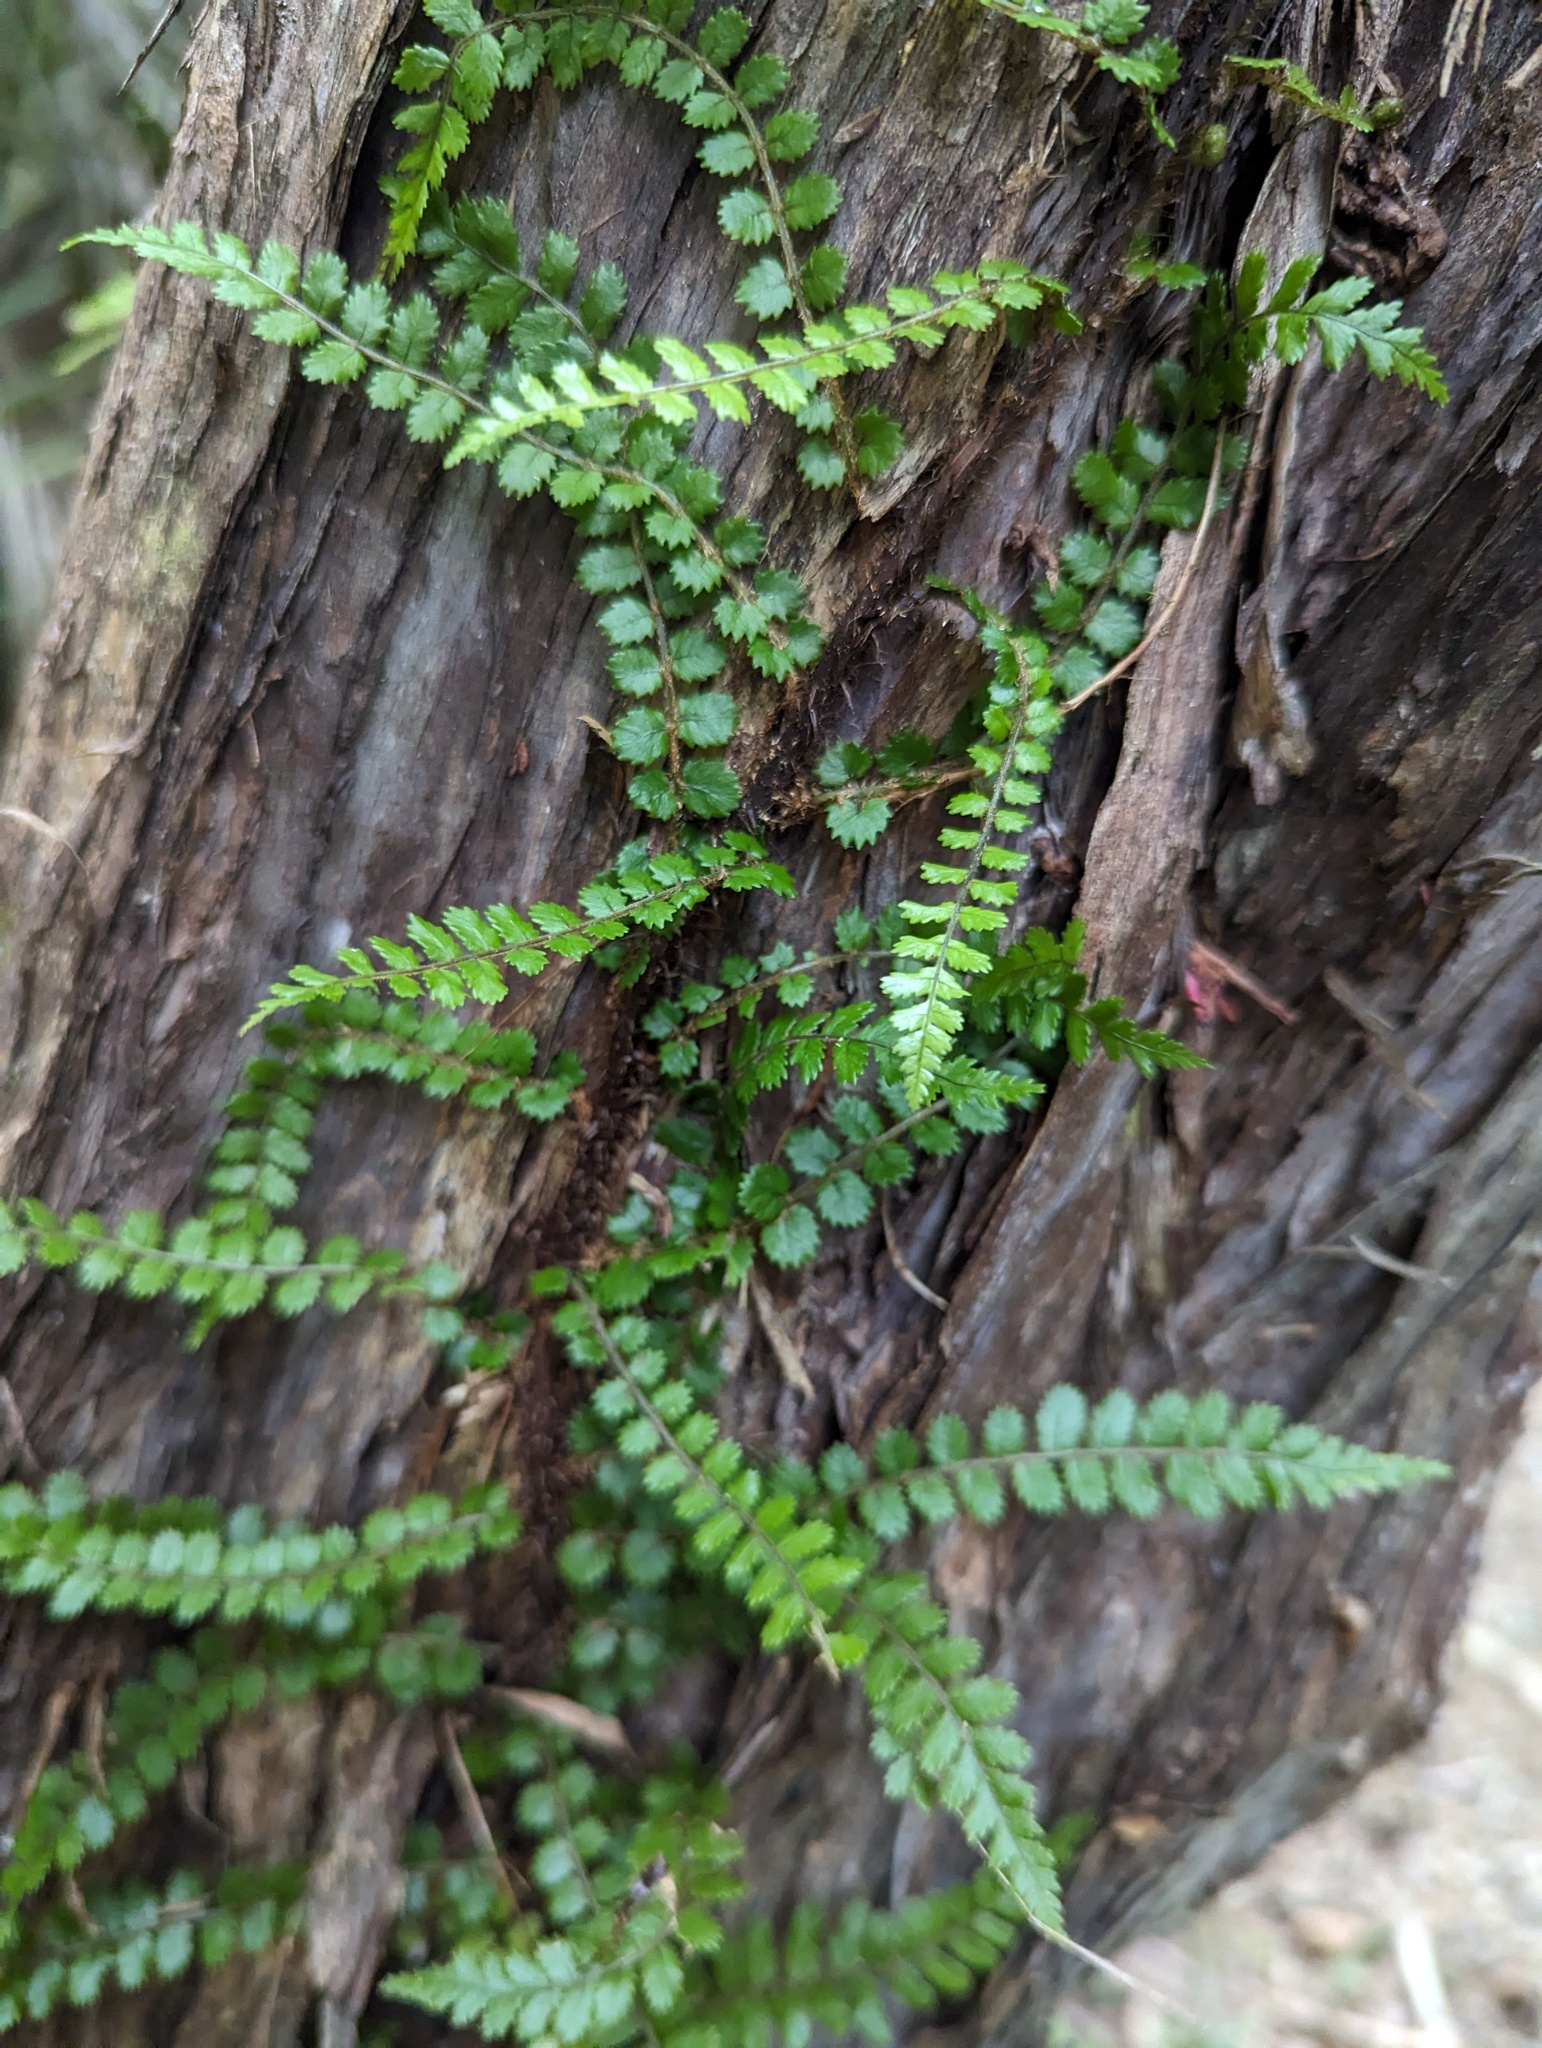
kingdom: Plantae
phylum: Tracheophyta
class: Polypodiopsida
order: Polypodiales
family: Blechnaceae
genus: Icarus
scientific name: Icarus filiformis
